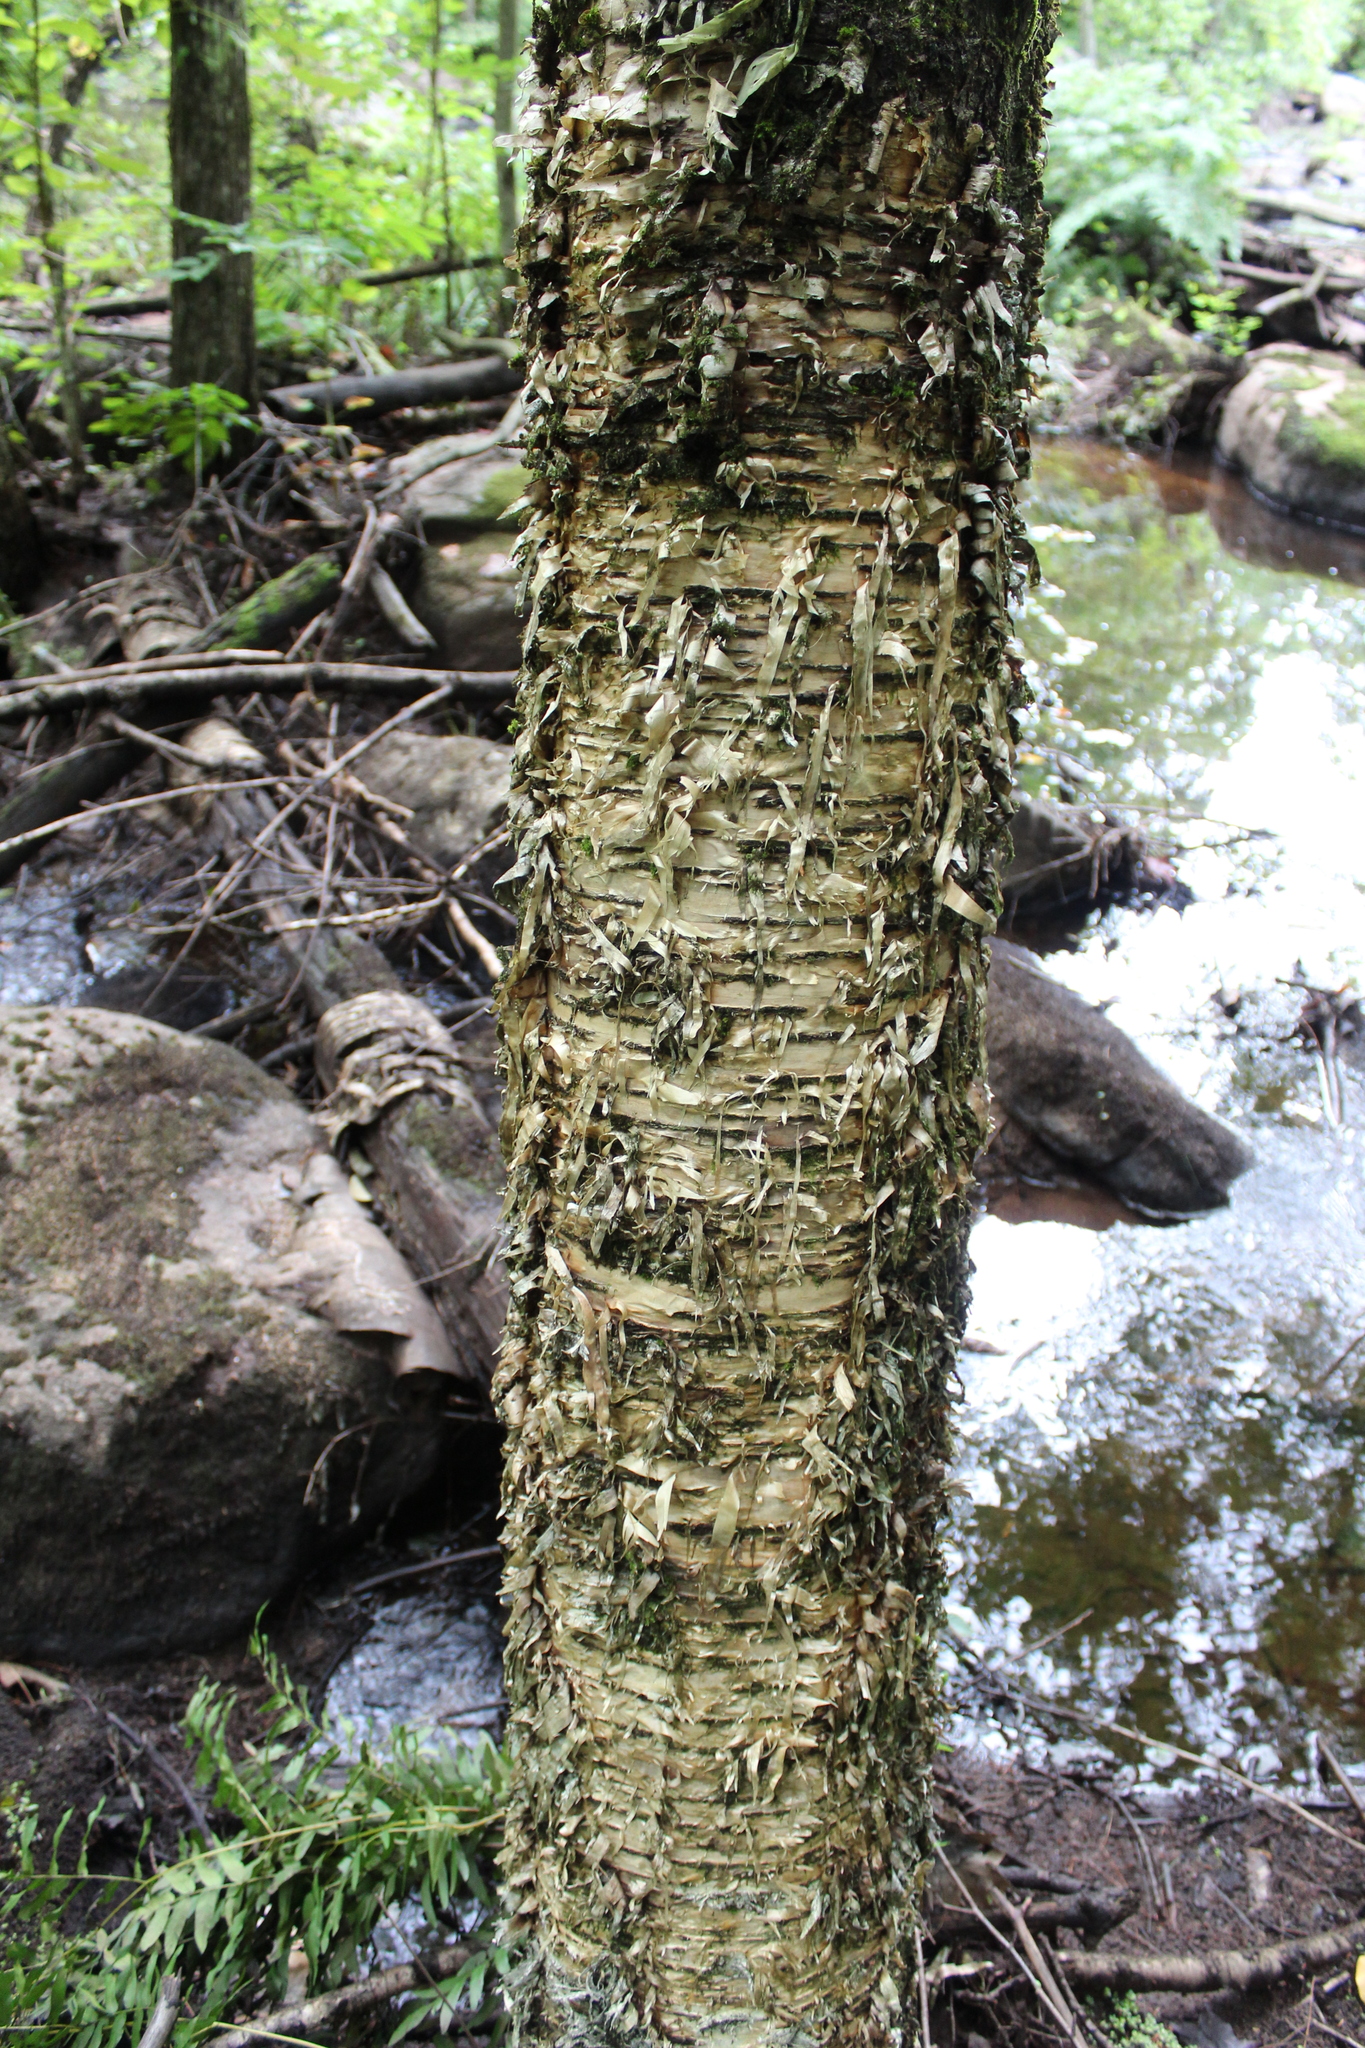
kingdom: Plantae
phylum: Tracheophyta
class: Magnoliopsida
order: Fagales
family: Betulaceae
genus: Betula
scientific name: Betula alleghaniensis
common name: Yellow birch
